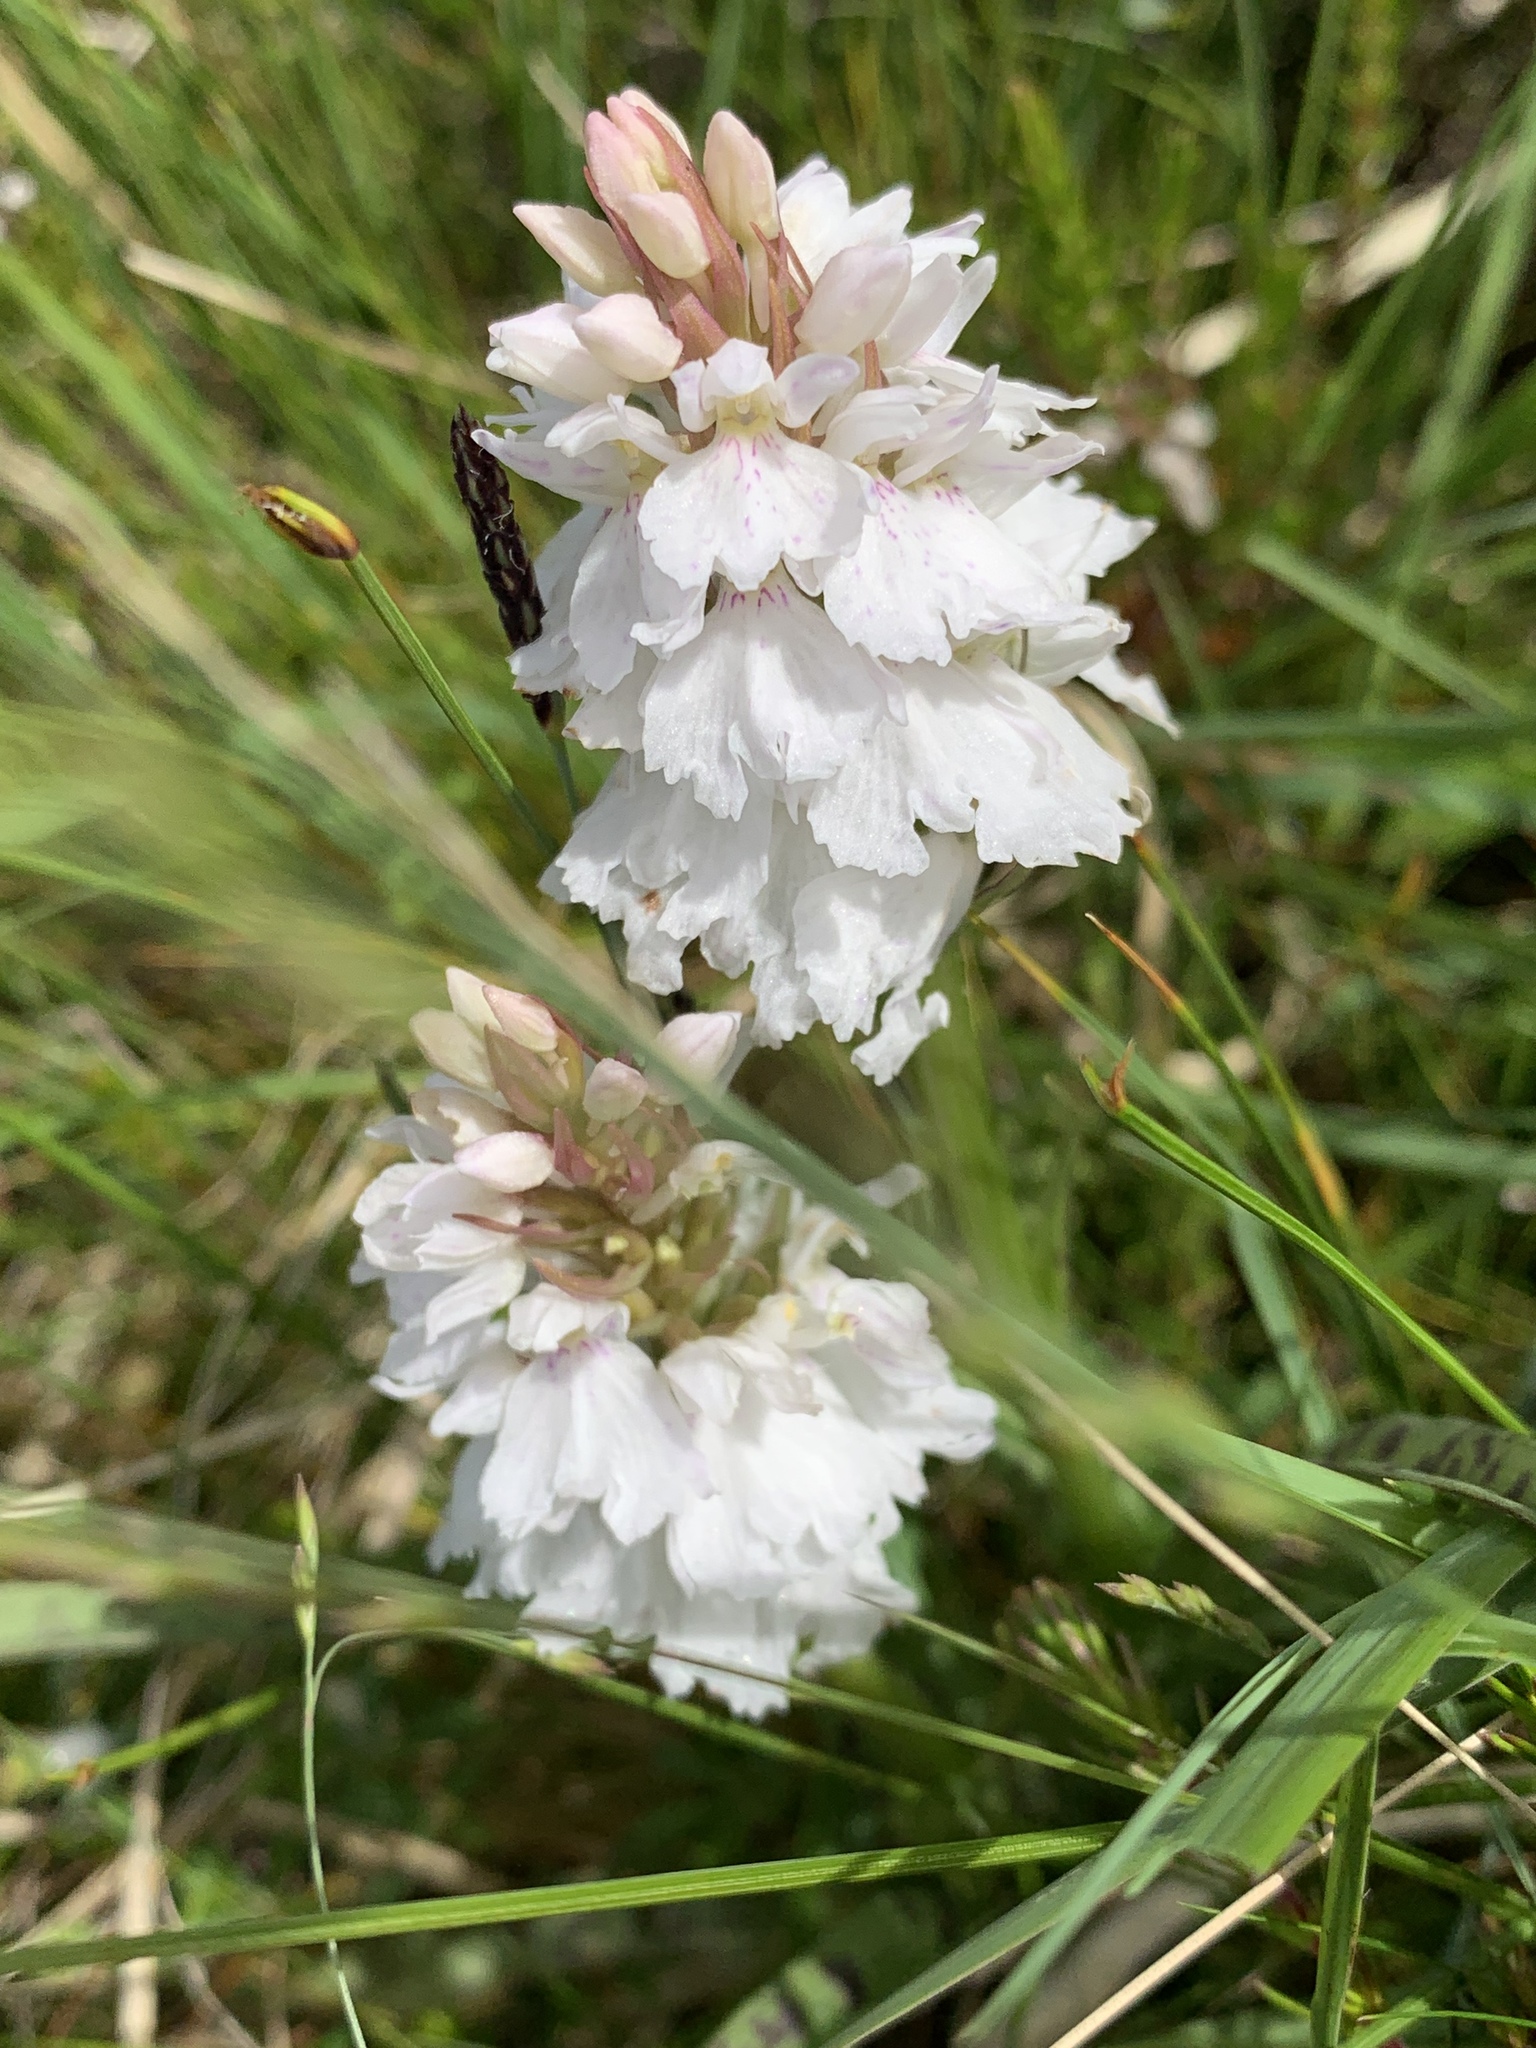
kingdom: Plantae
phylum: Tracheophyta
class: Liliopsida
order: Asparagales
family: Orchidaceae
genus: Dactylorhiza
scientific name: Dactylorhiza maculata
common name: Heath spotted-orchid
